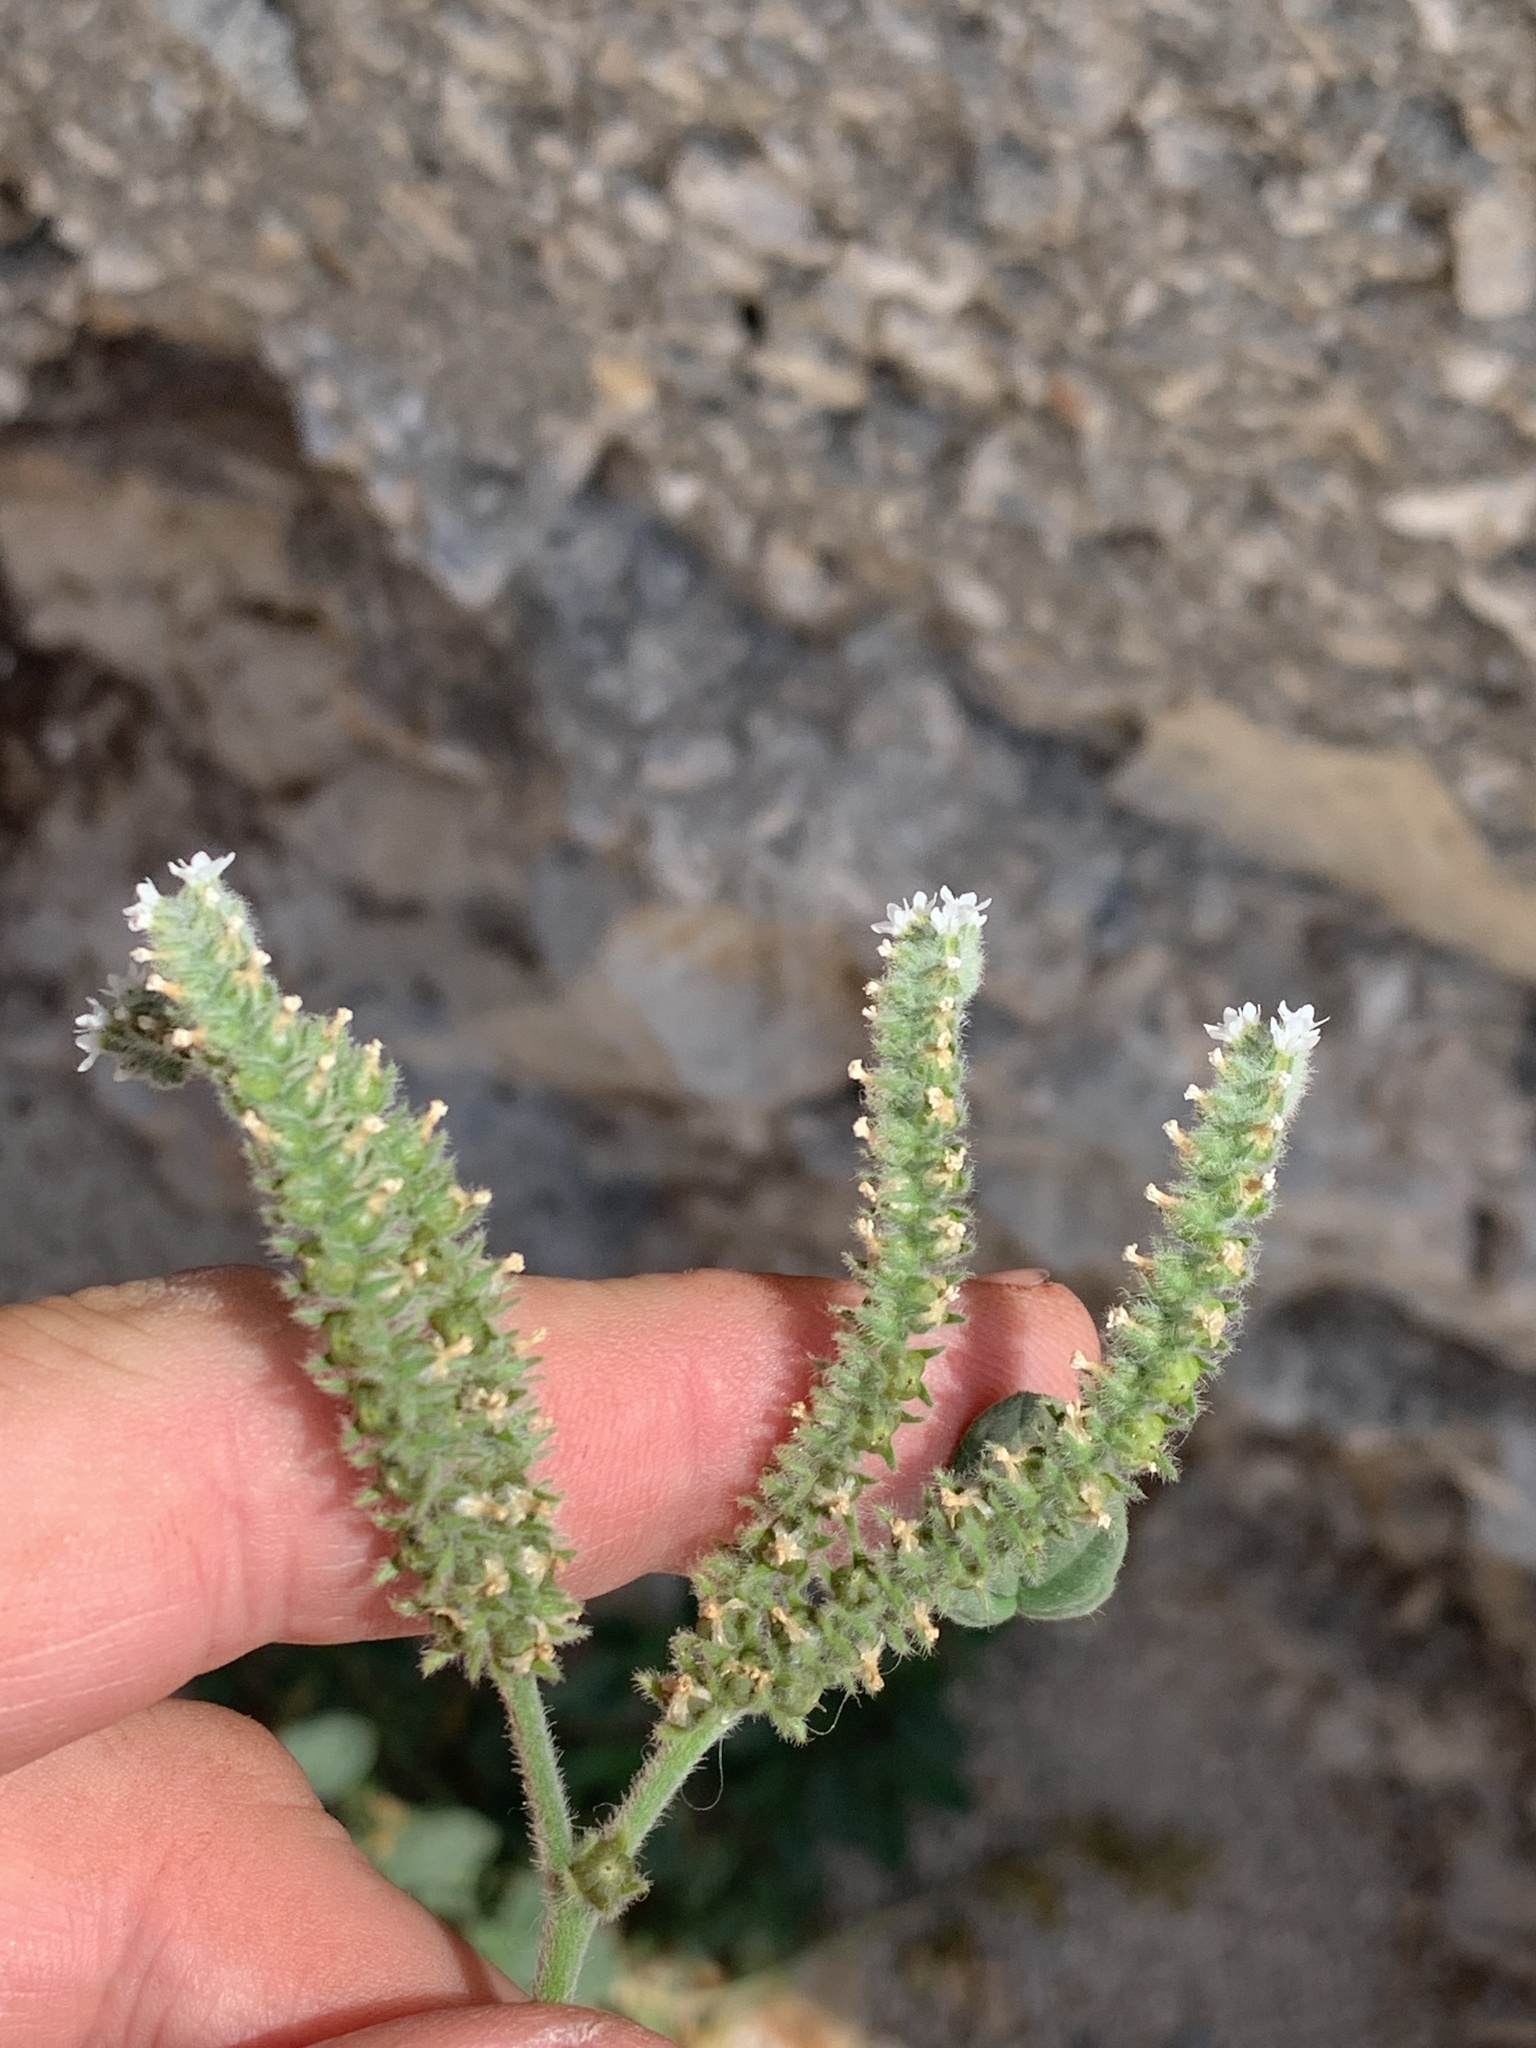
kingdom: Plantae
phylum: Tracheophyta
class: Magnoliopsida
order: Boraginales
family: Heliotropiaceae
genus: Heliotropium
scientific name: Heliotropium europaeum
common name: European heliotrope
